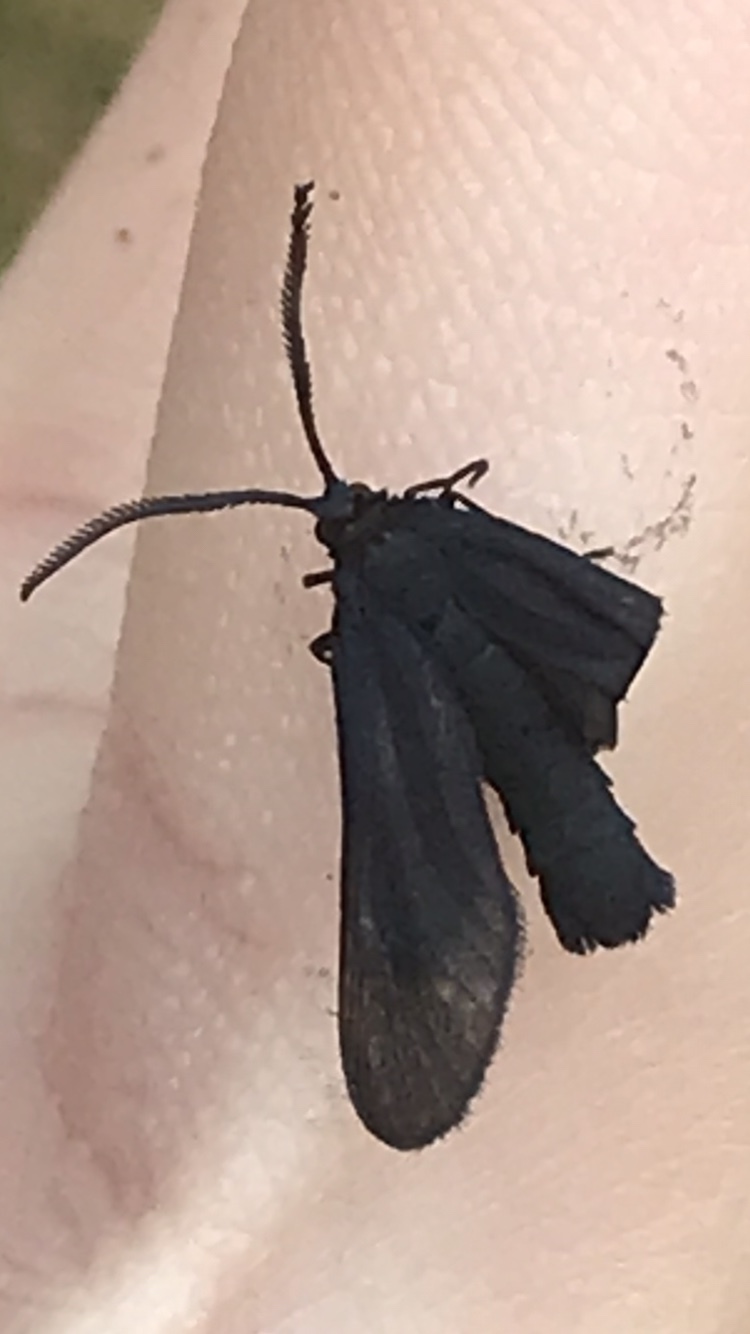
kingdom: Animalia
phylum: Arthropoda
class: Insecta
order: Lepidoptera
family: Zygaenidae
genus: Harrisina
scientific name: Harrisina coracina
